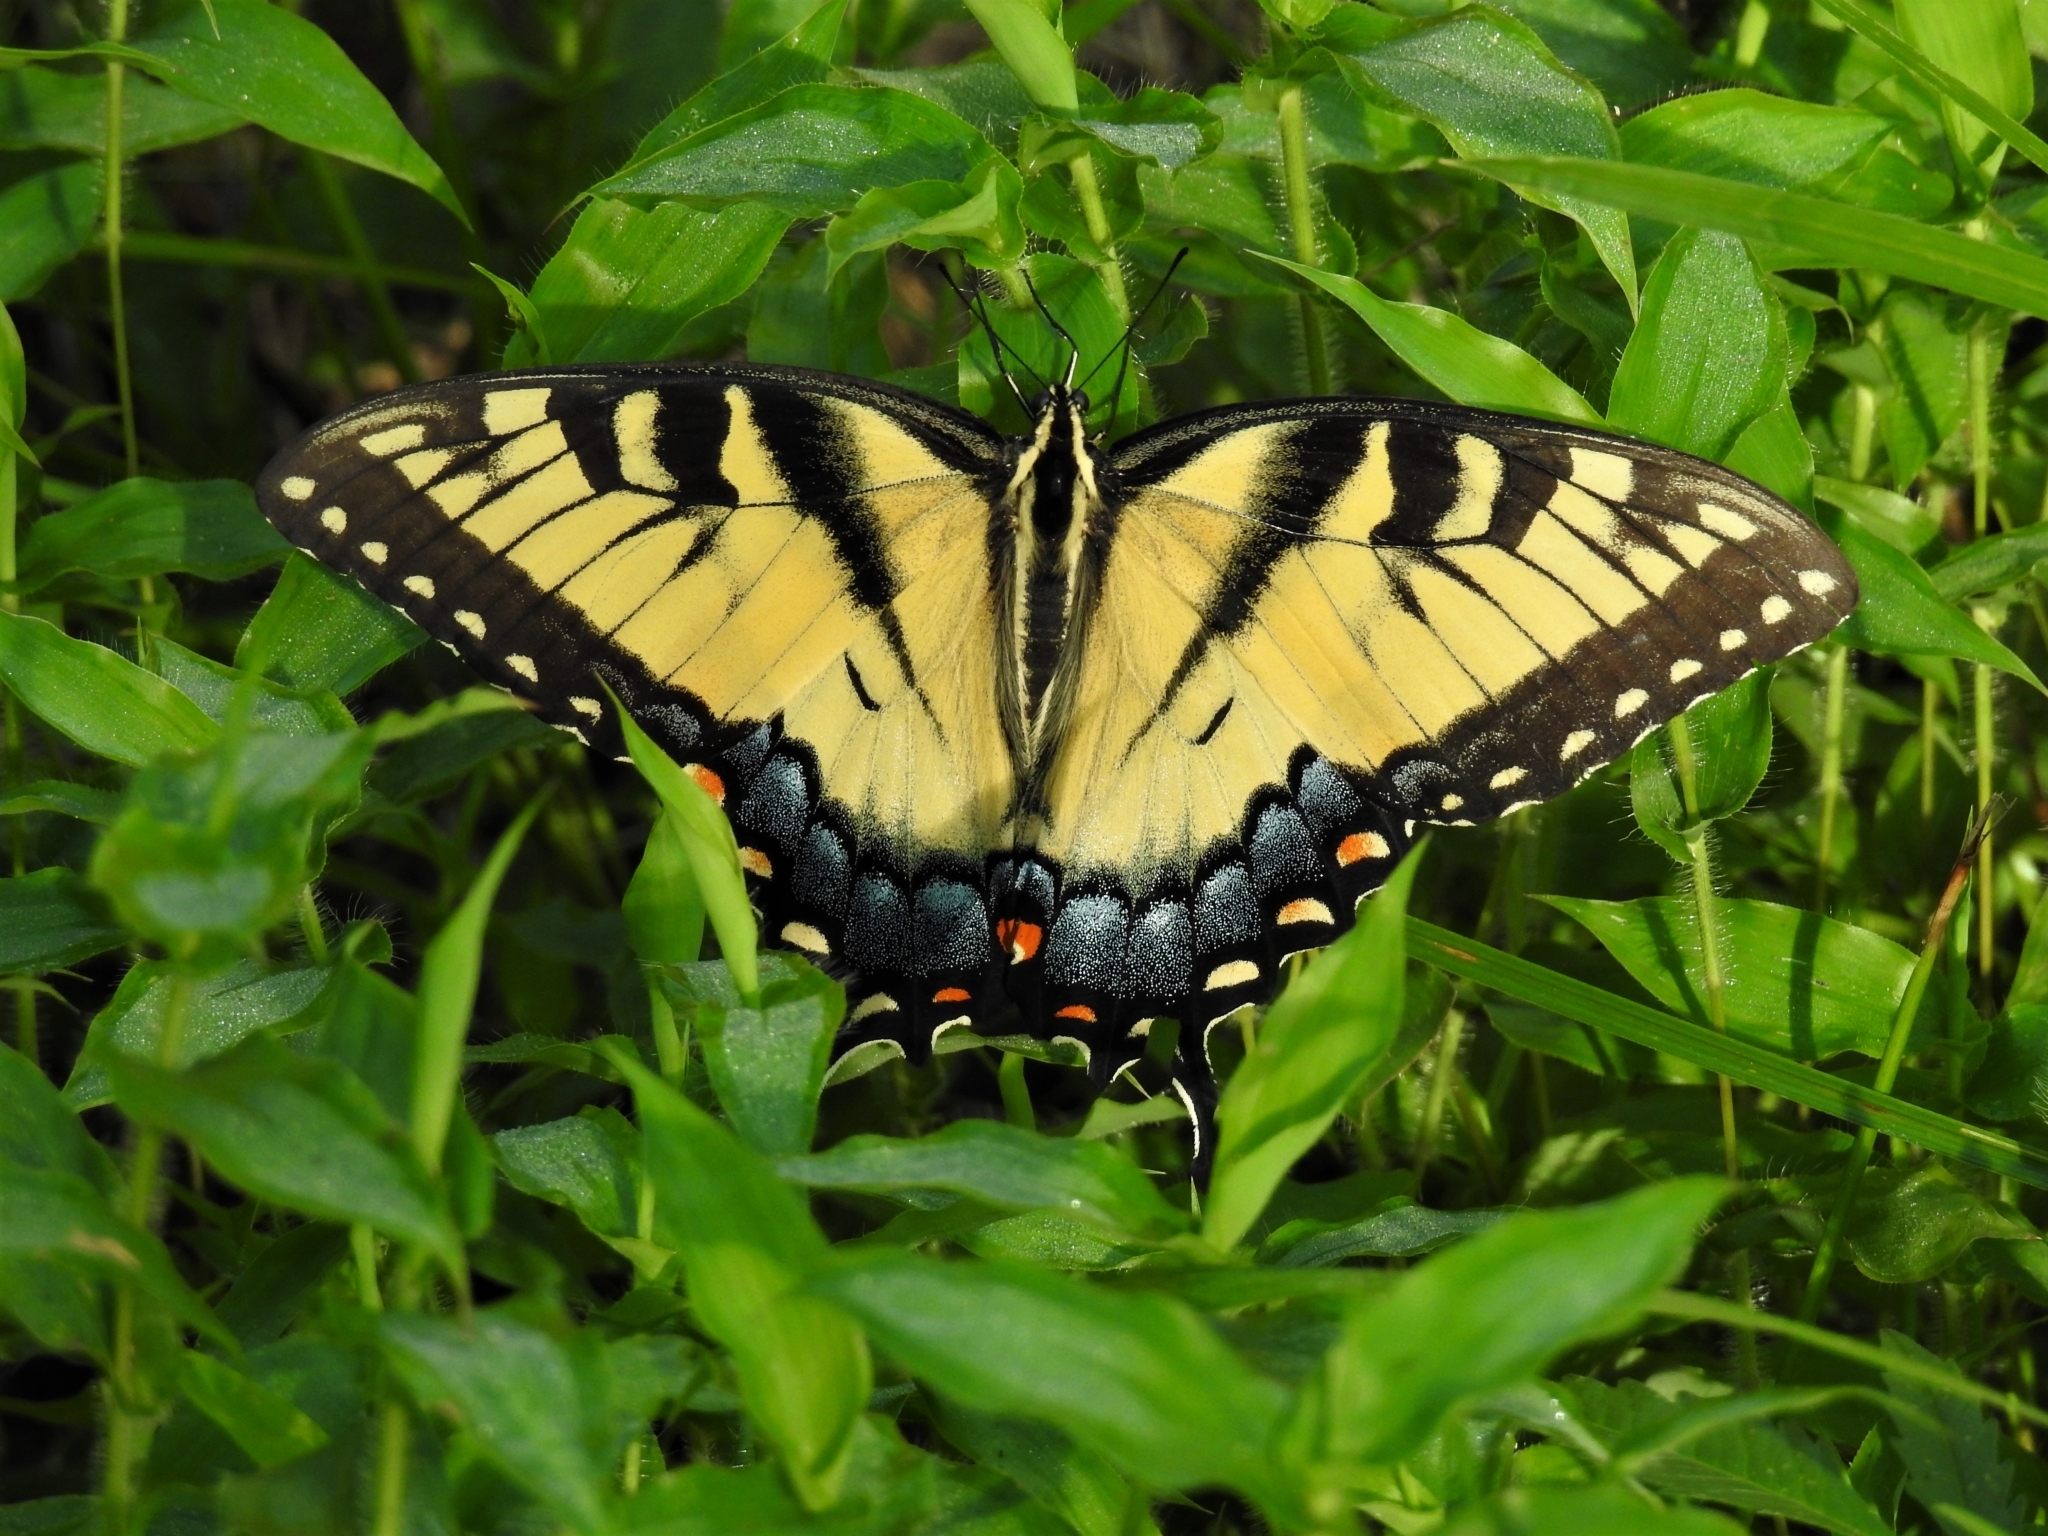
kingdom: Animalia
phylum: Arthropoda
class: Insecta
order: Lepidoptera
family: Papilionidae
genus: Papilio
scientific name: Papilio glaucus
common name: Tiger swallowtail
